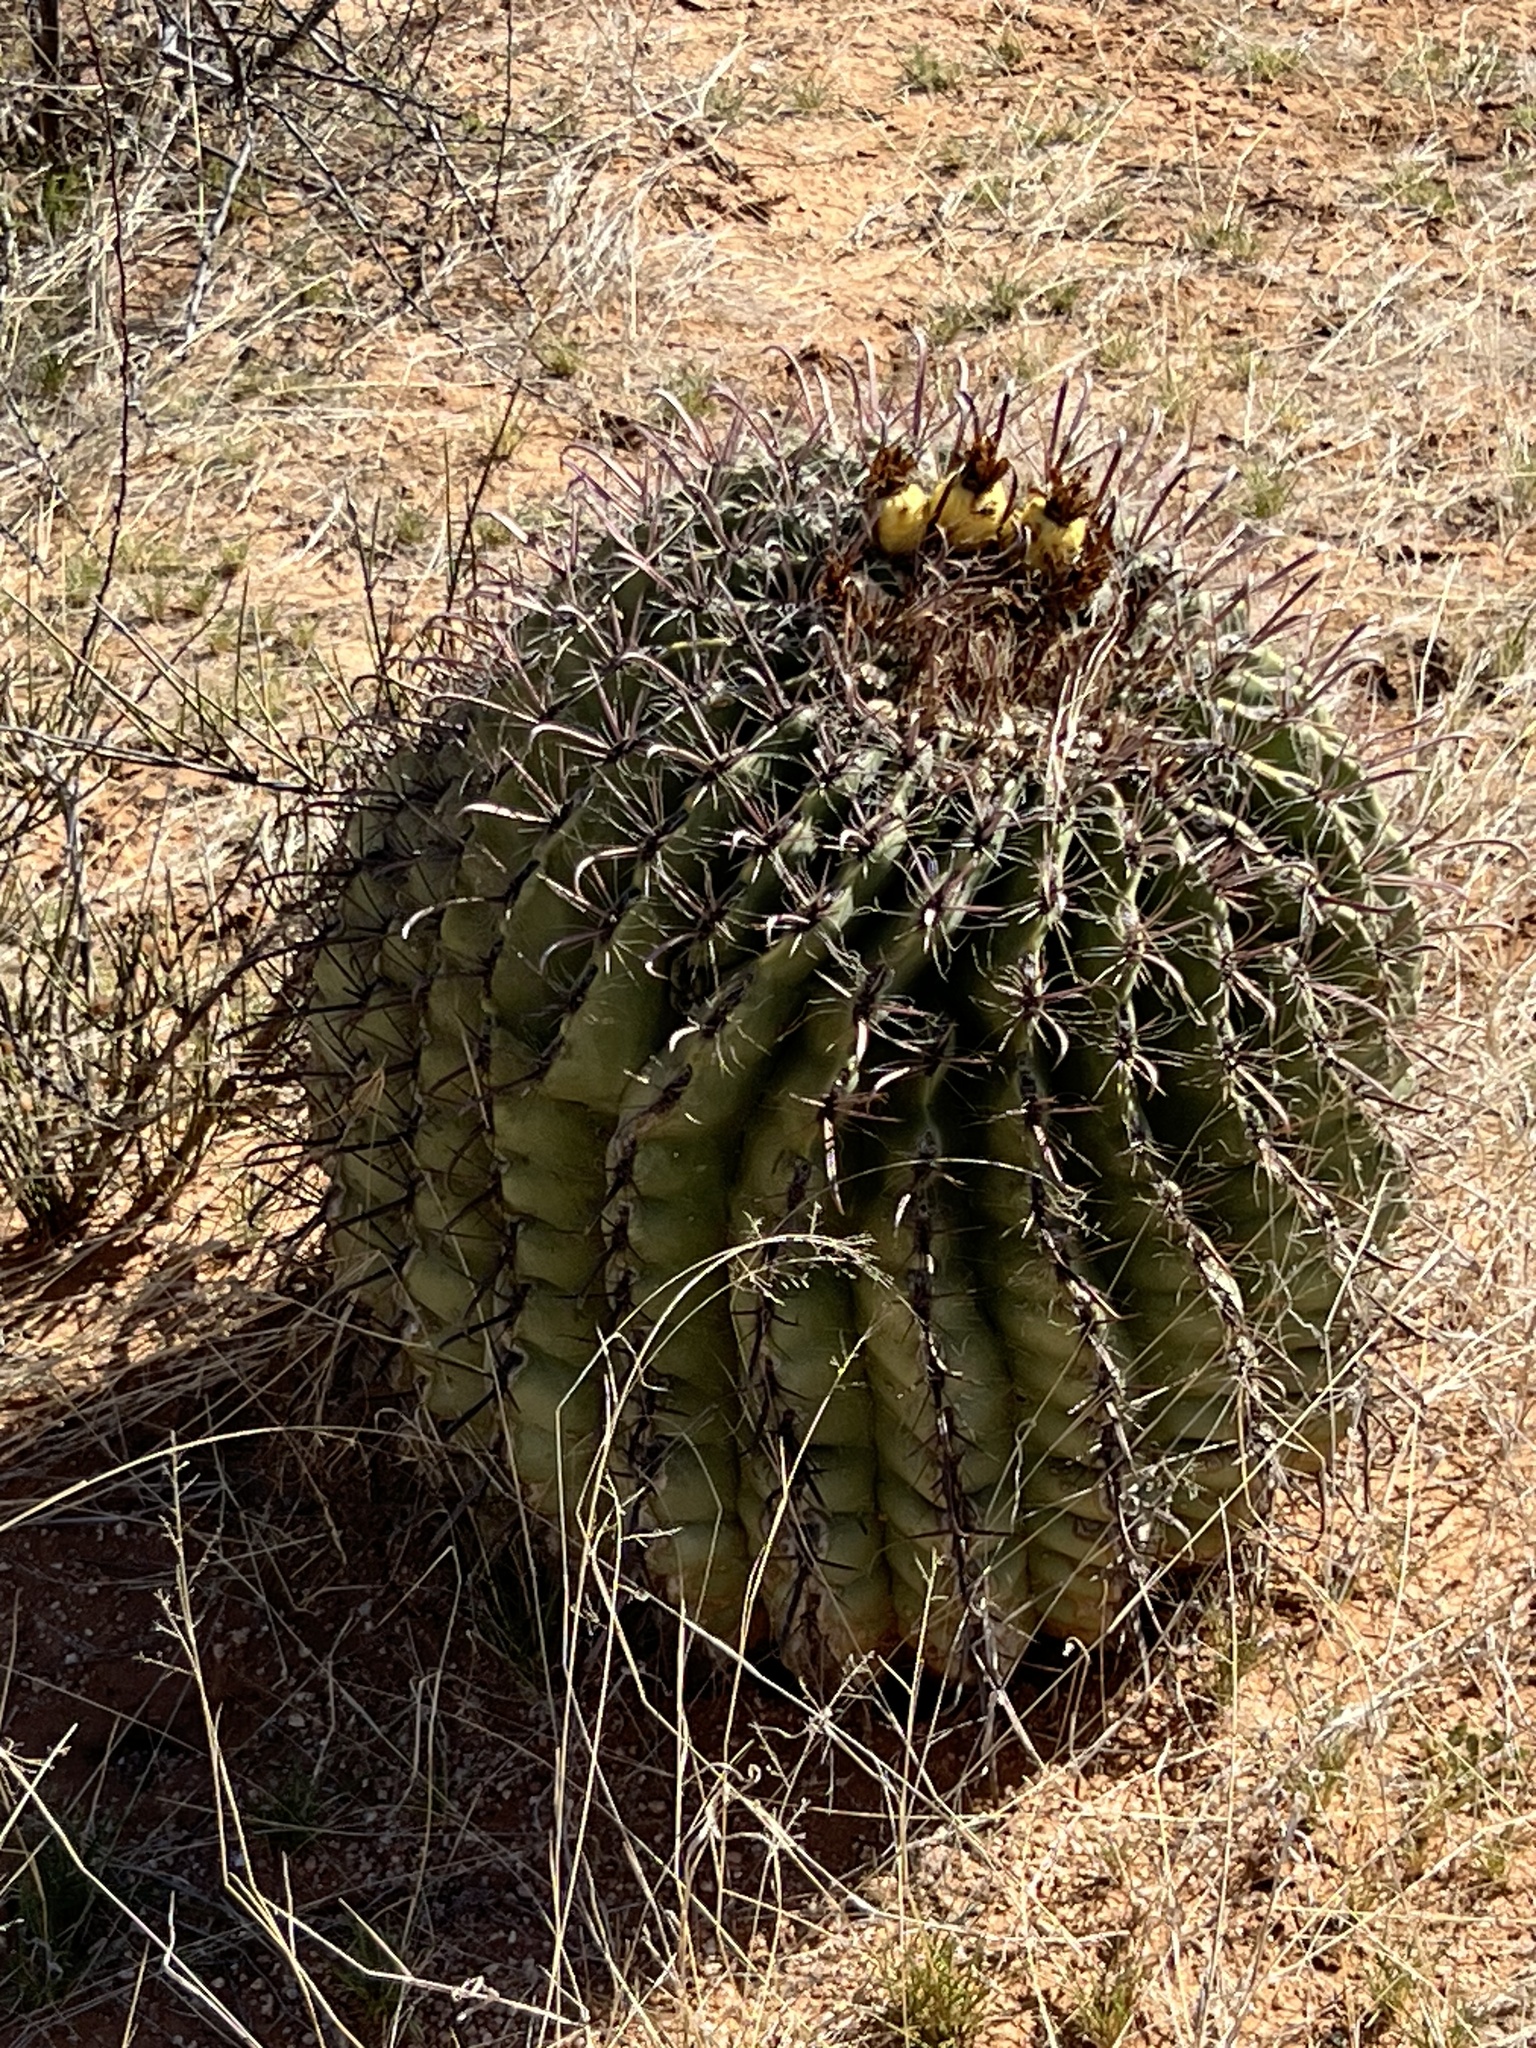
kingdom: Plantae
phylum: Tracheophyta
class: Magnoliopsida
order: Caryophyllales
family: Cactaceae
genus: Ferocactus
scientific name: Ferocactus wislizeni
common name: Candy barrel cactus
